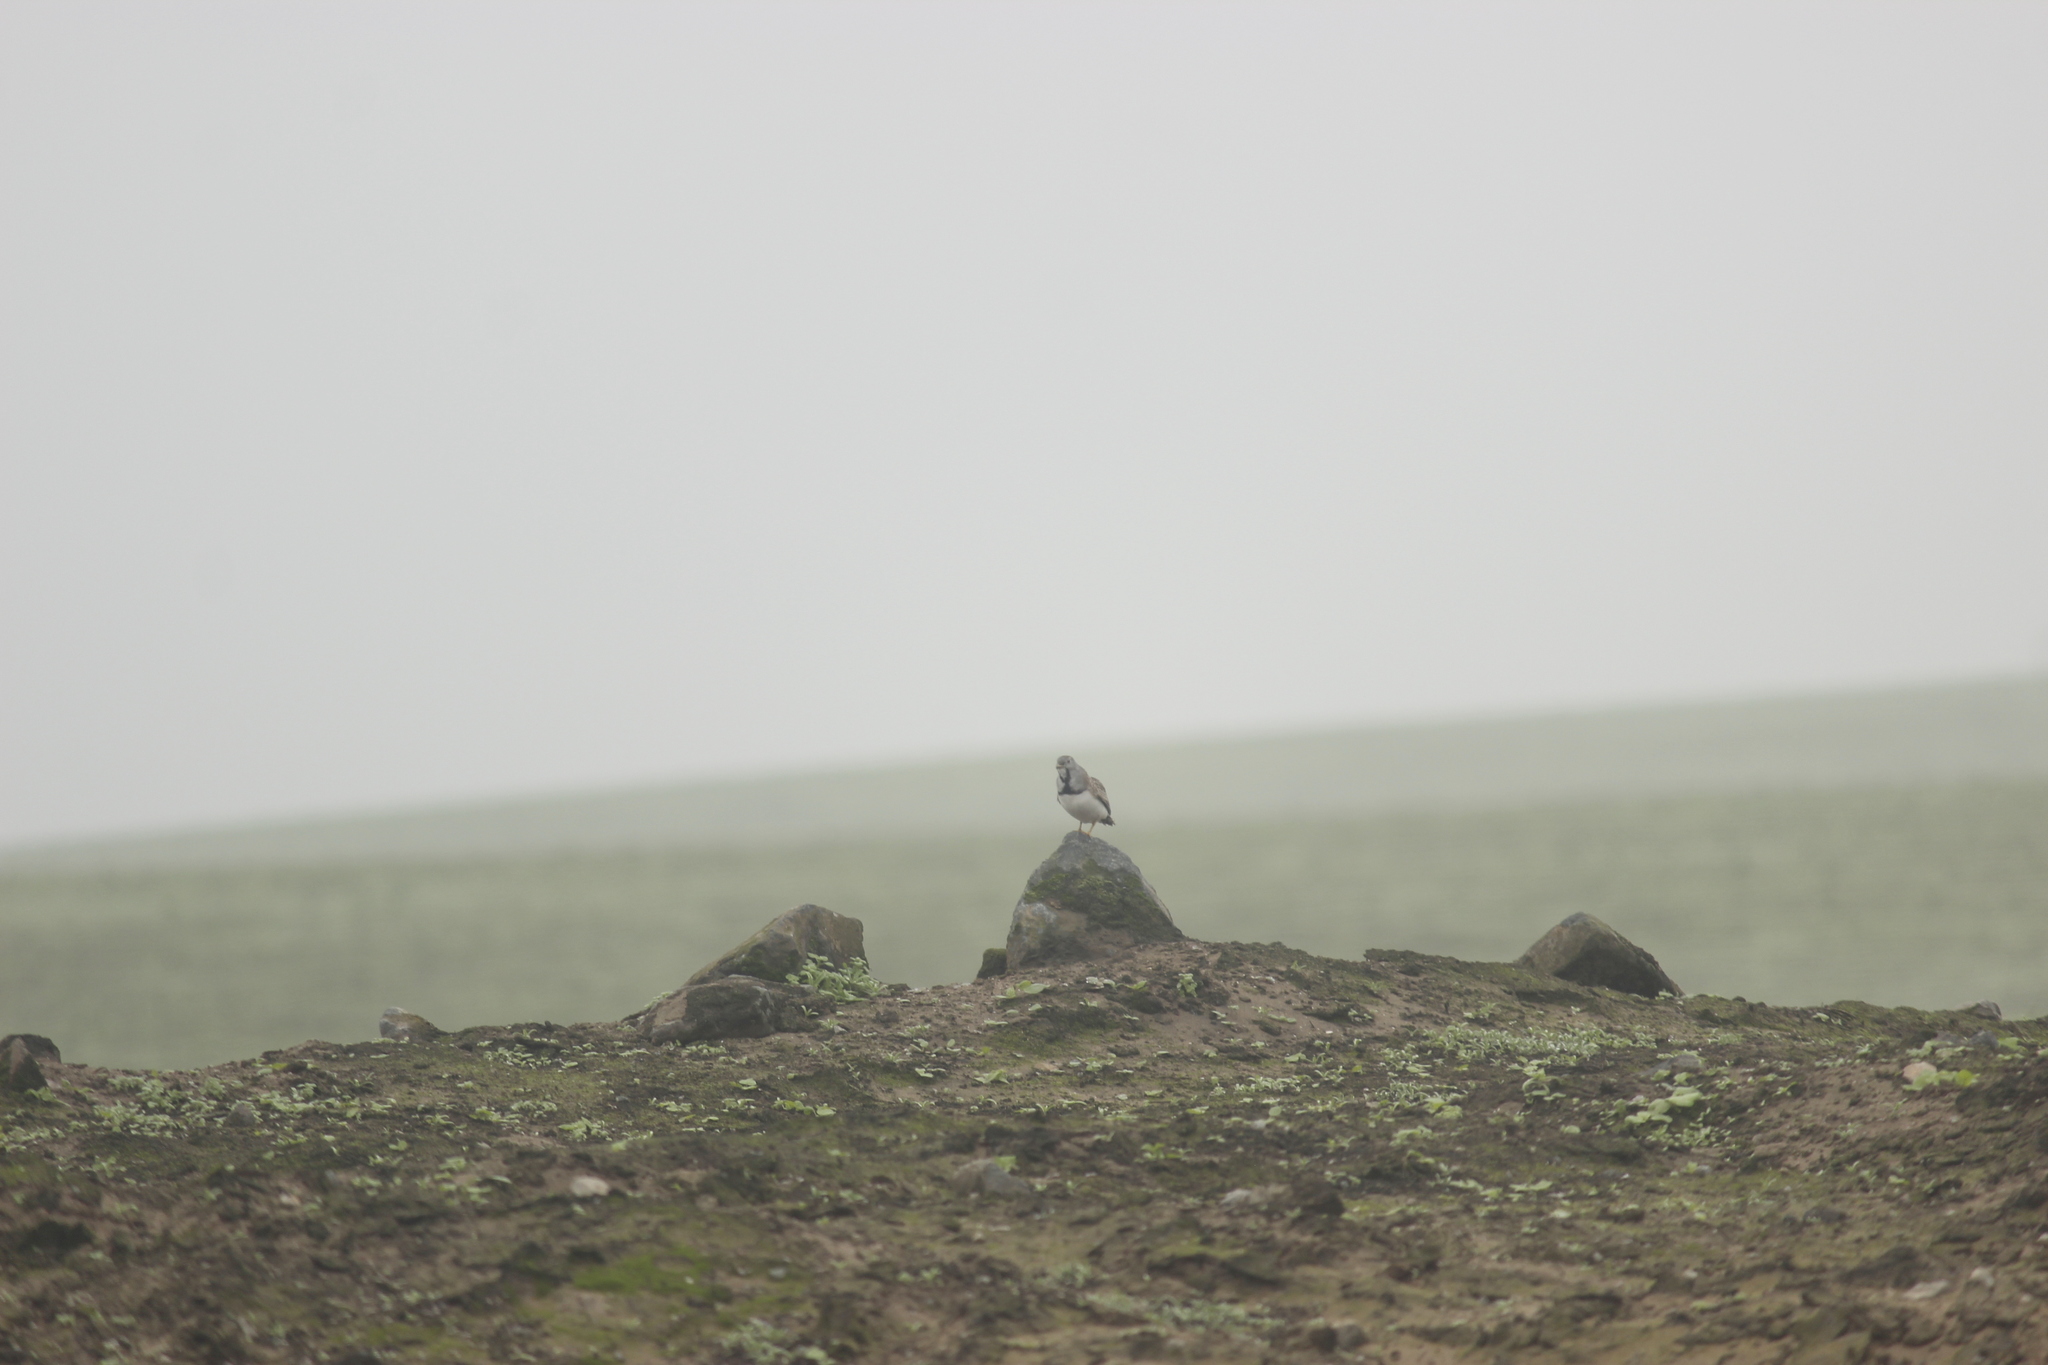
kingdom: Animalia
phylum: Chordata
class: Aves
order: Charadriiformes
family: Thinocoridae
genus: Thinocorus
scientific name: Thinocorus rumicivorus
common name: Least seedsnipe
